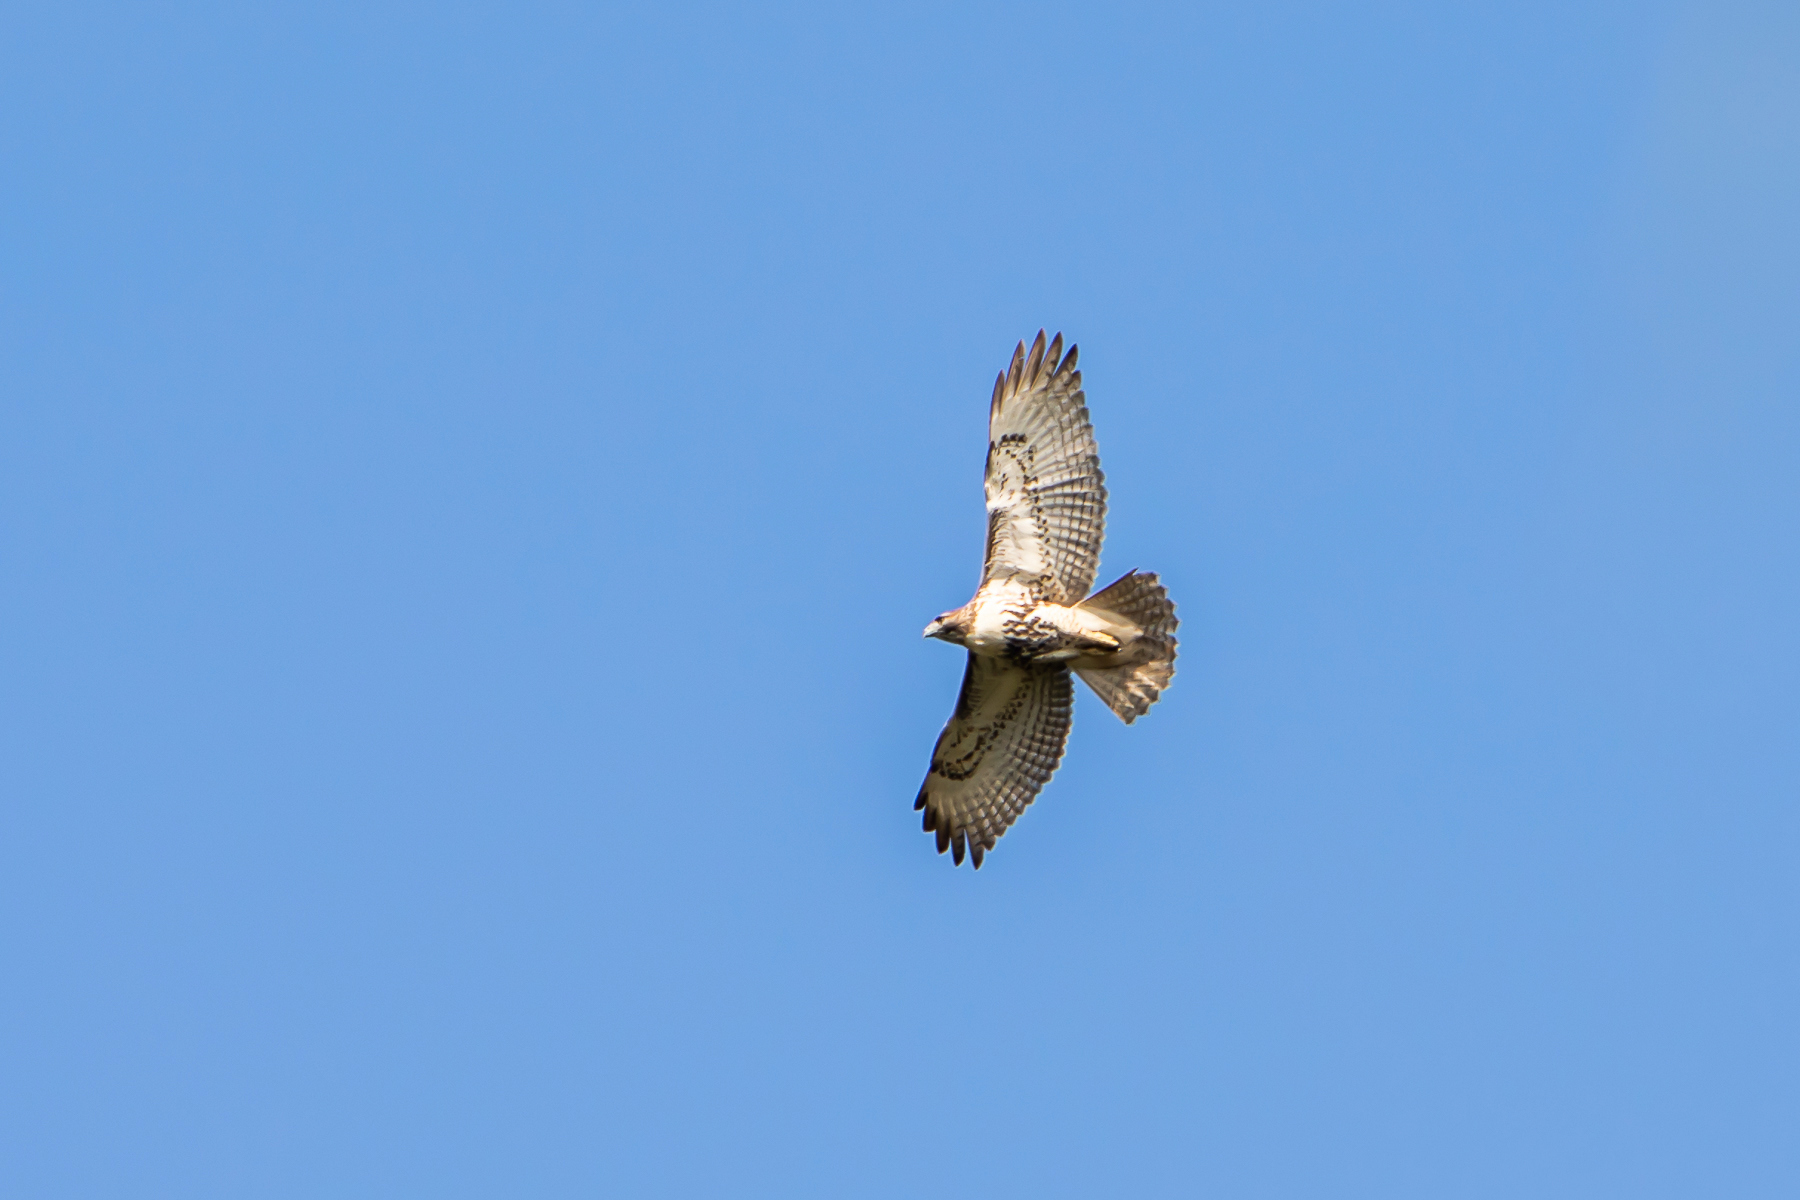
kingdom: Animalia
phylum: Chordata
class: Aves
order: Accipitriformes
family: Accipitridae
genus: Buteo
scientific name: Buteo jamaicensis
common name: Red-tailed hawk
